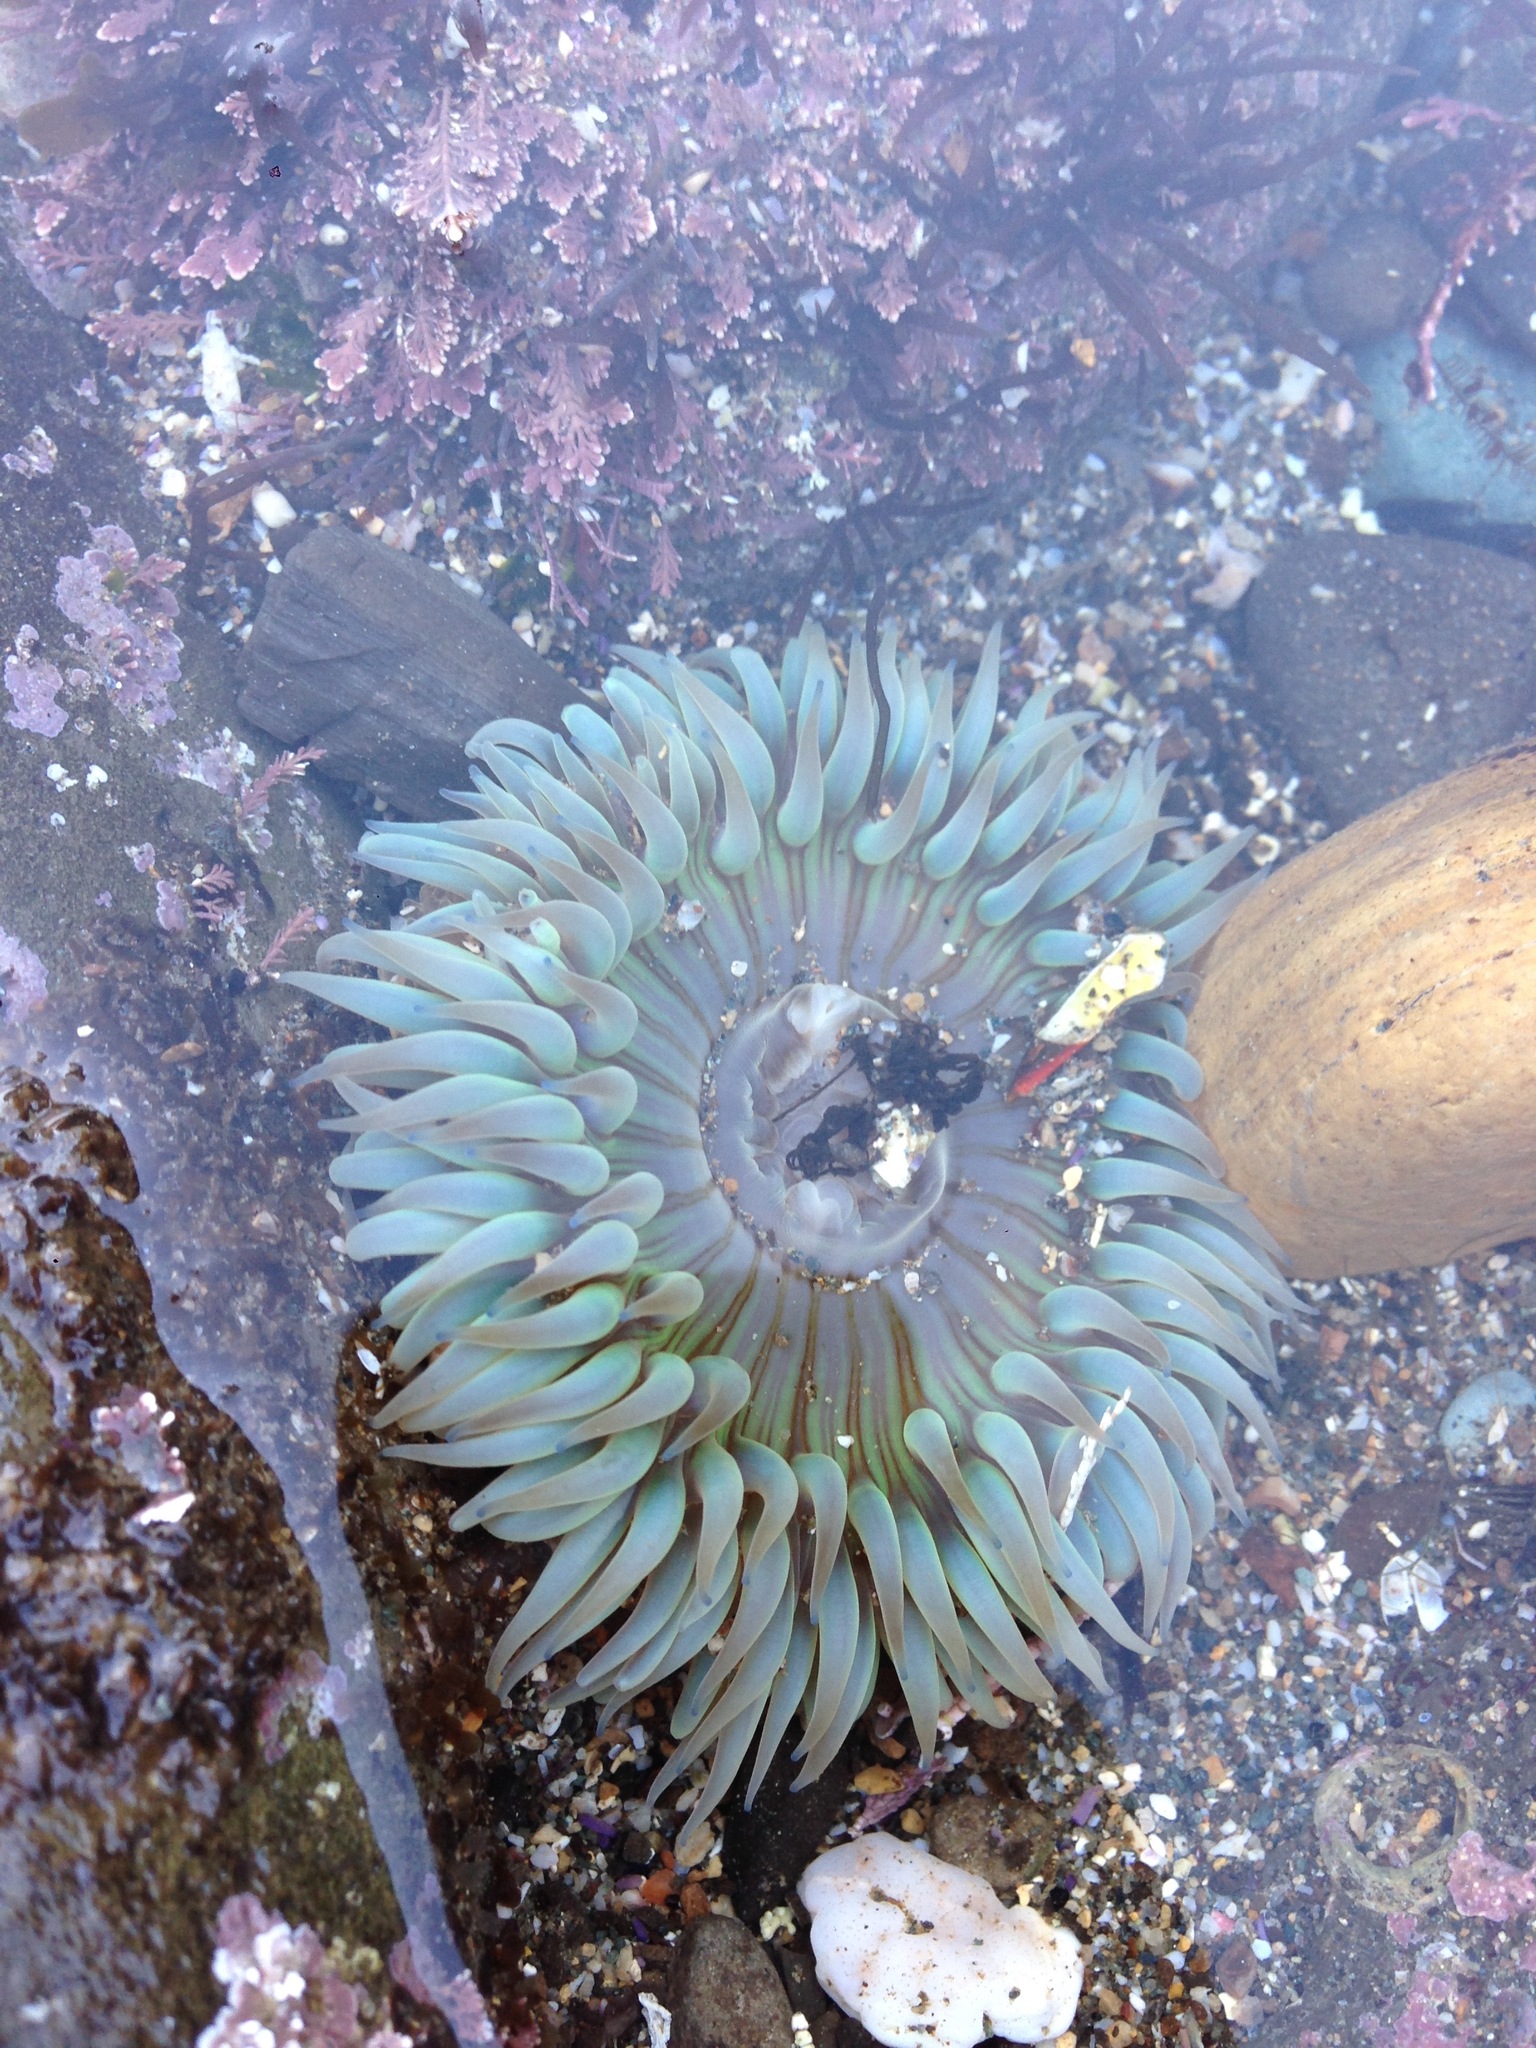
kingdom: Animalia
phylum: Cnidaria
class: Anthozoa
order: Actiniaria
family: Actiniidae
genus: Anthopleura
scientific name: Anthopleura sola
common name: Sun anemone
